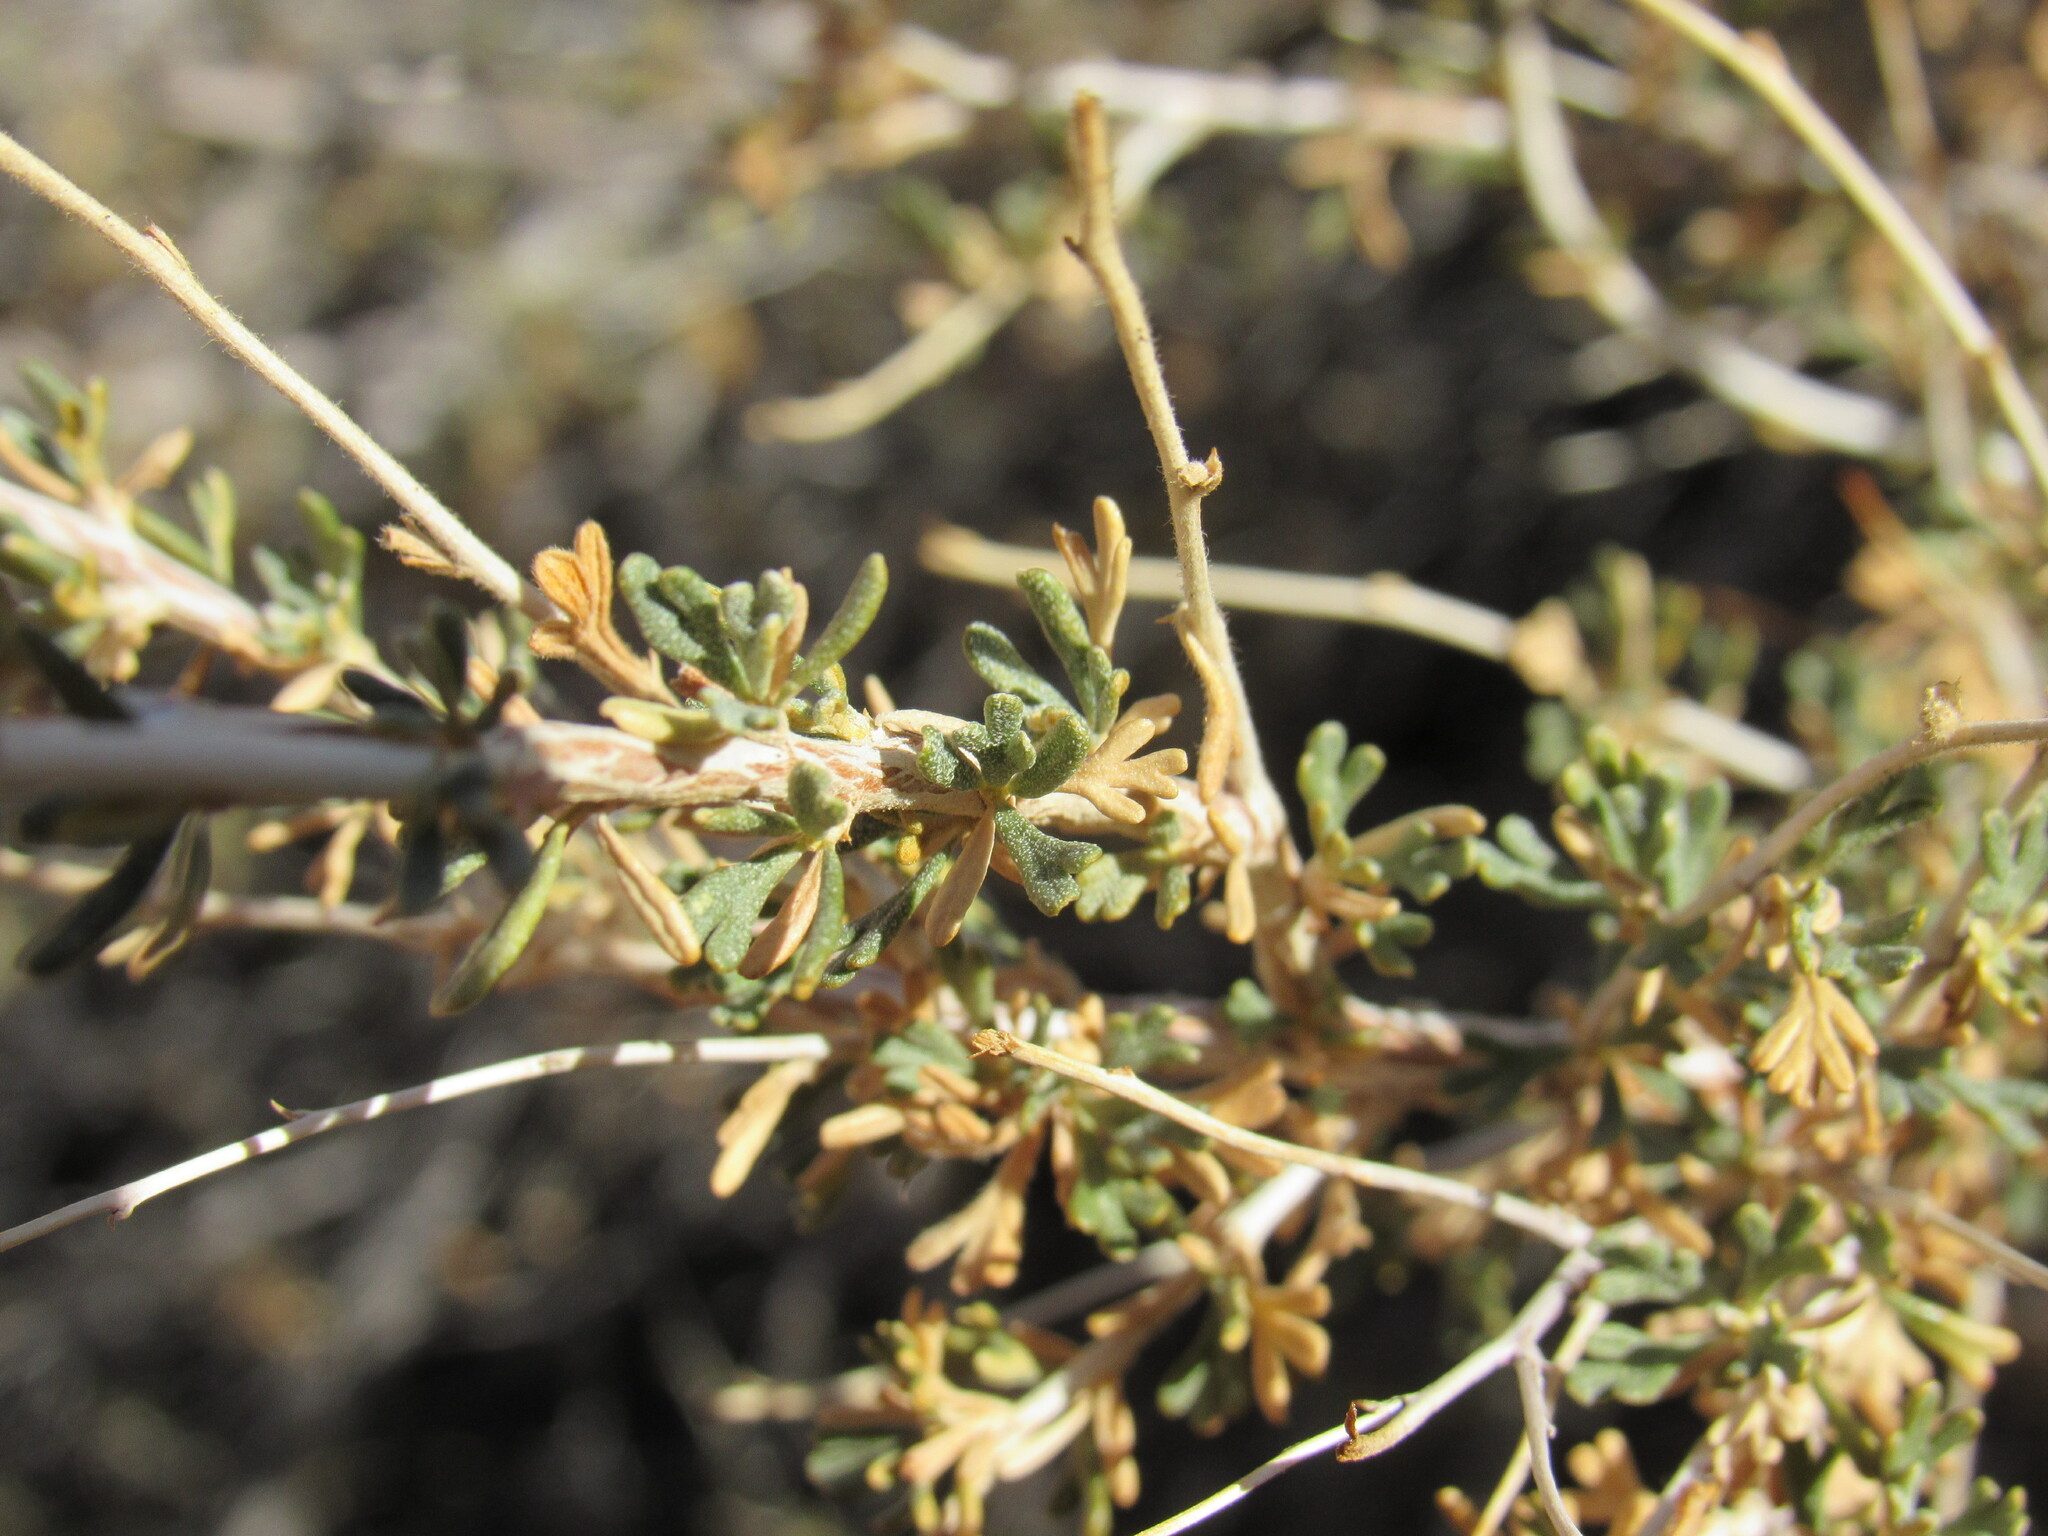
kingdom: Plantae
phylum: Tracheophyta
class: Magnoliopsida
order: Rosales
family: Rosaceae
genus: Fallugia
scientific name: Fallugia paradoxa
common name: Apache-plume
